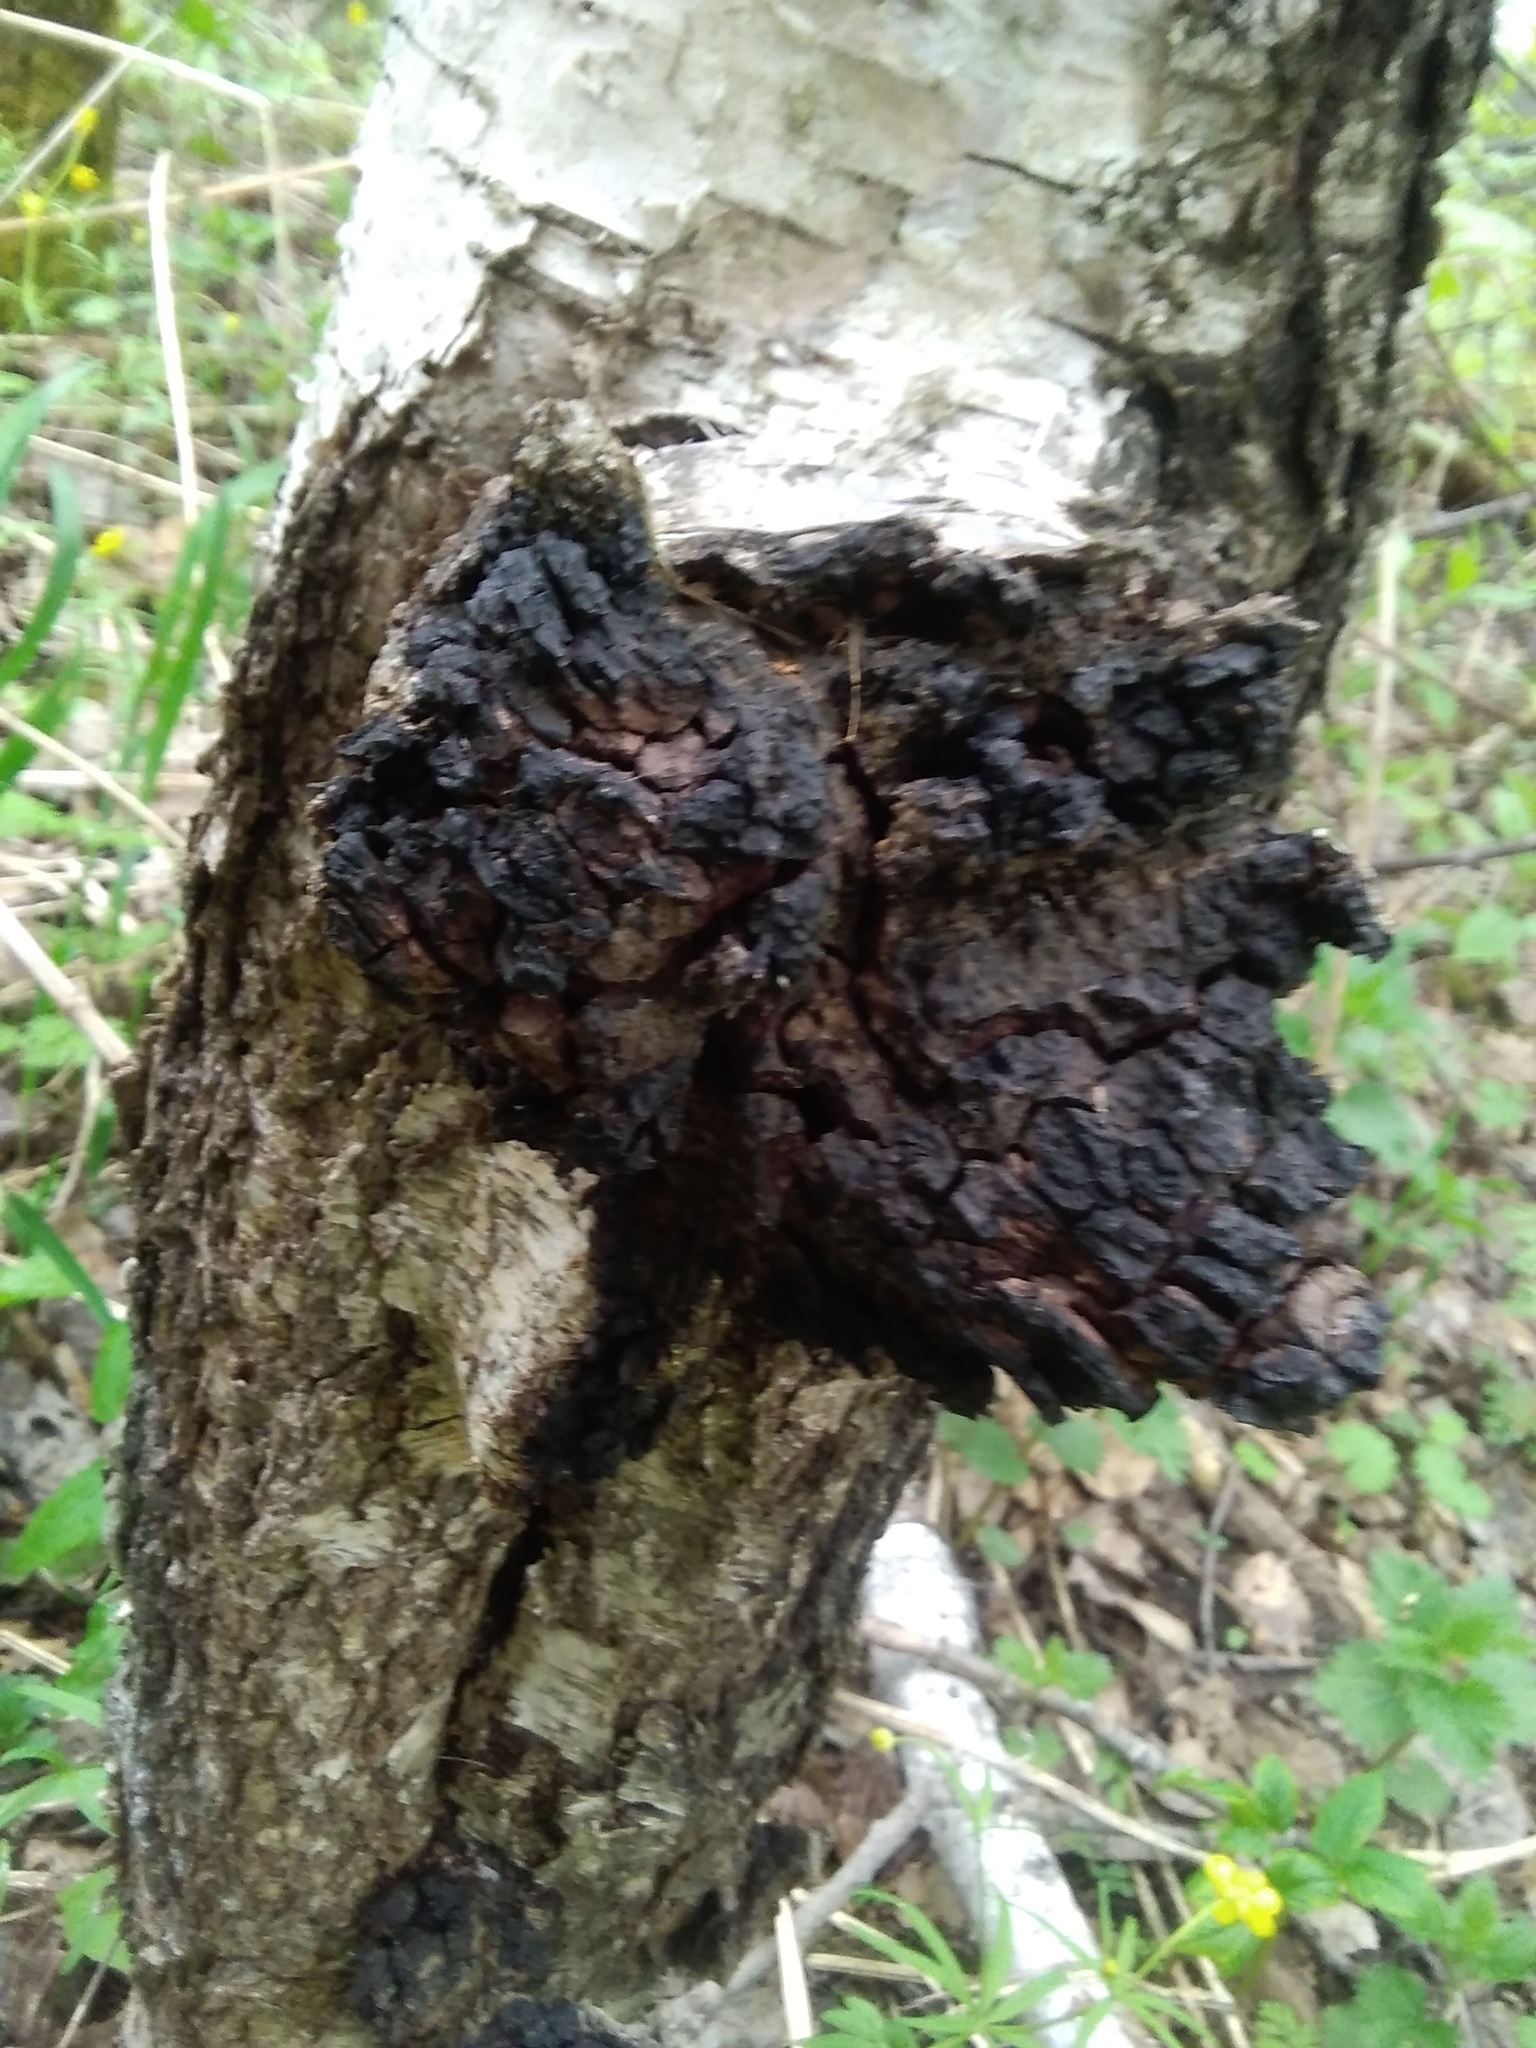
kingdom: Fungi
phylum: Basidiomycota
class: Agaricomycetes
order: Hymenochaetales
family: Hymenochaetaceae
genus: Inonotus
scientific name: Inonotus obliquus
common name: Chaga
